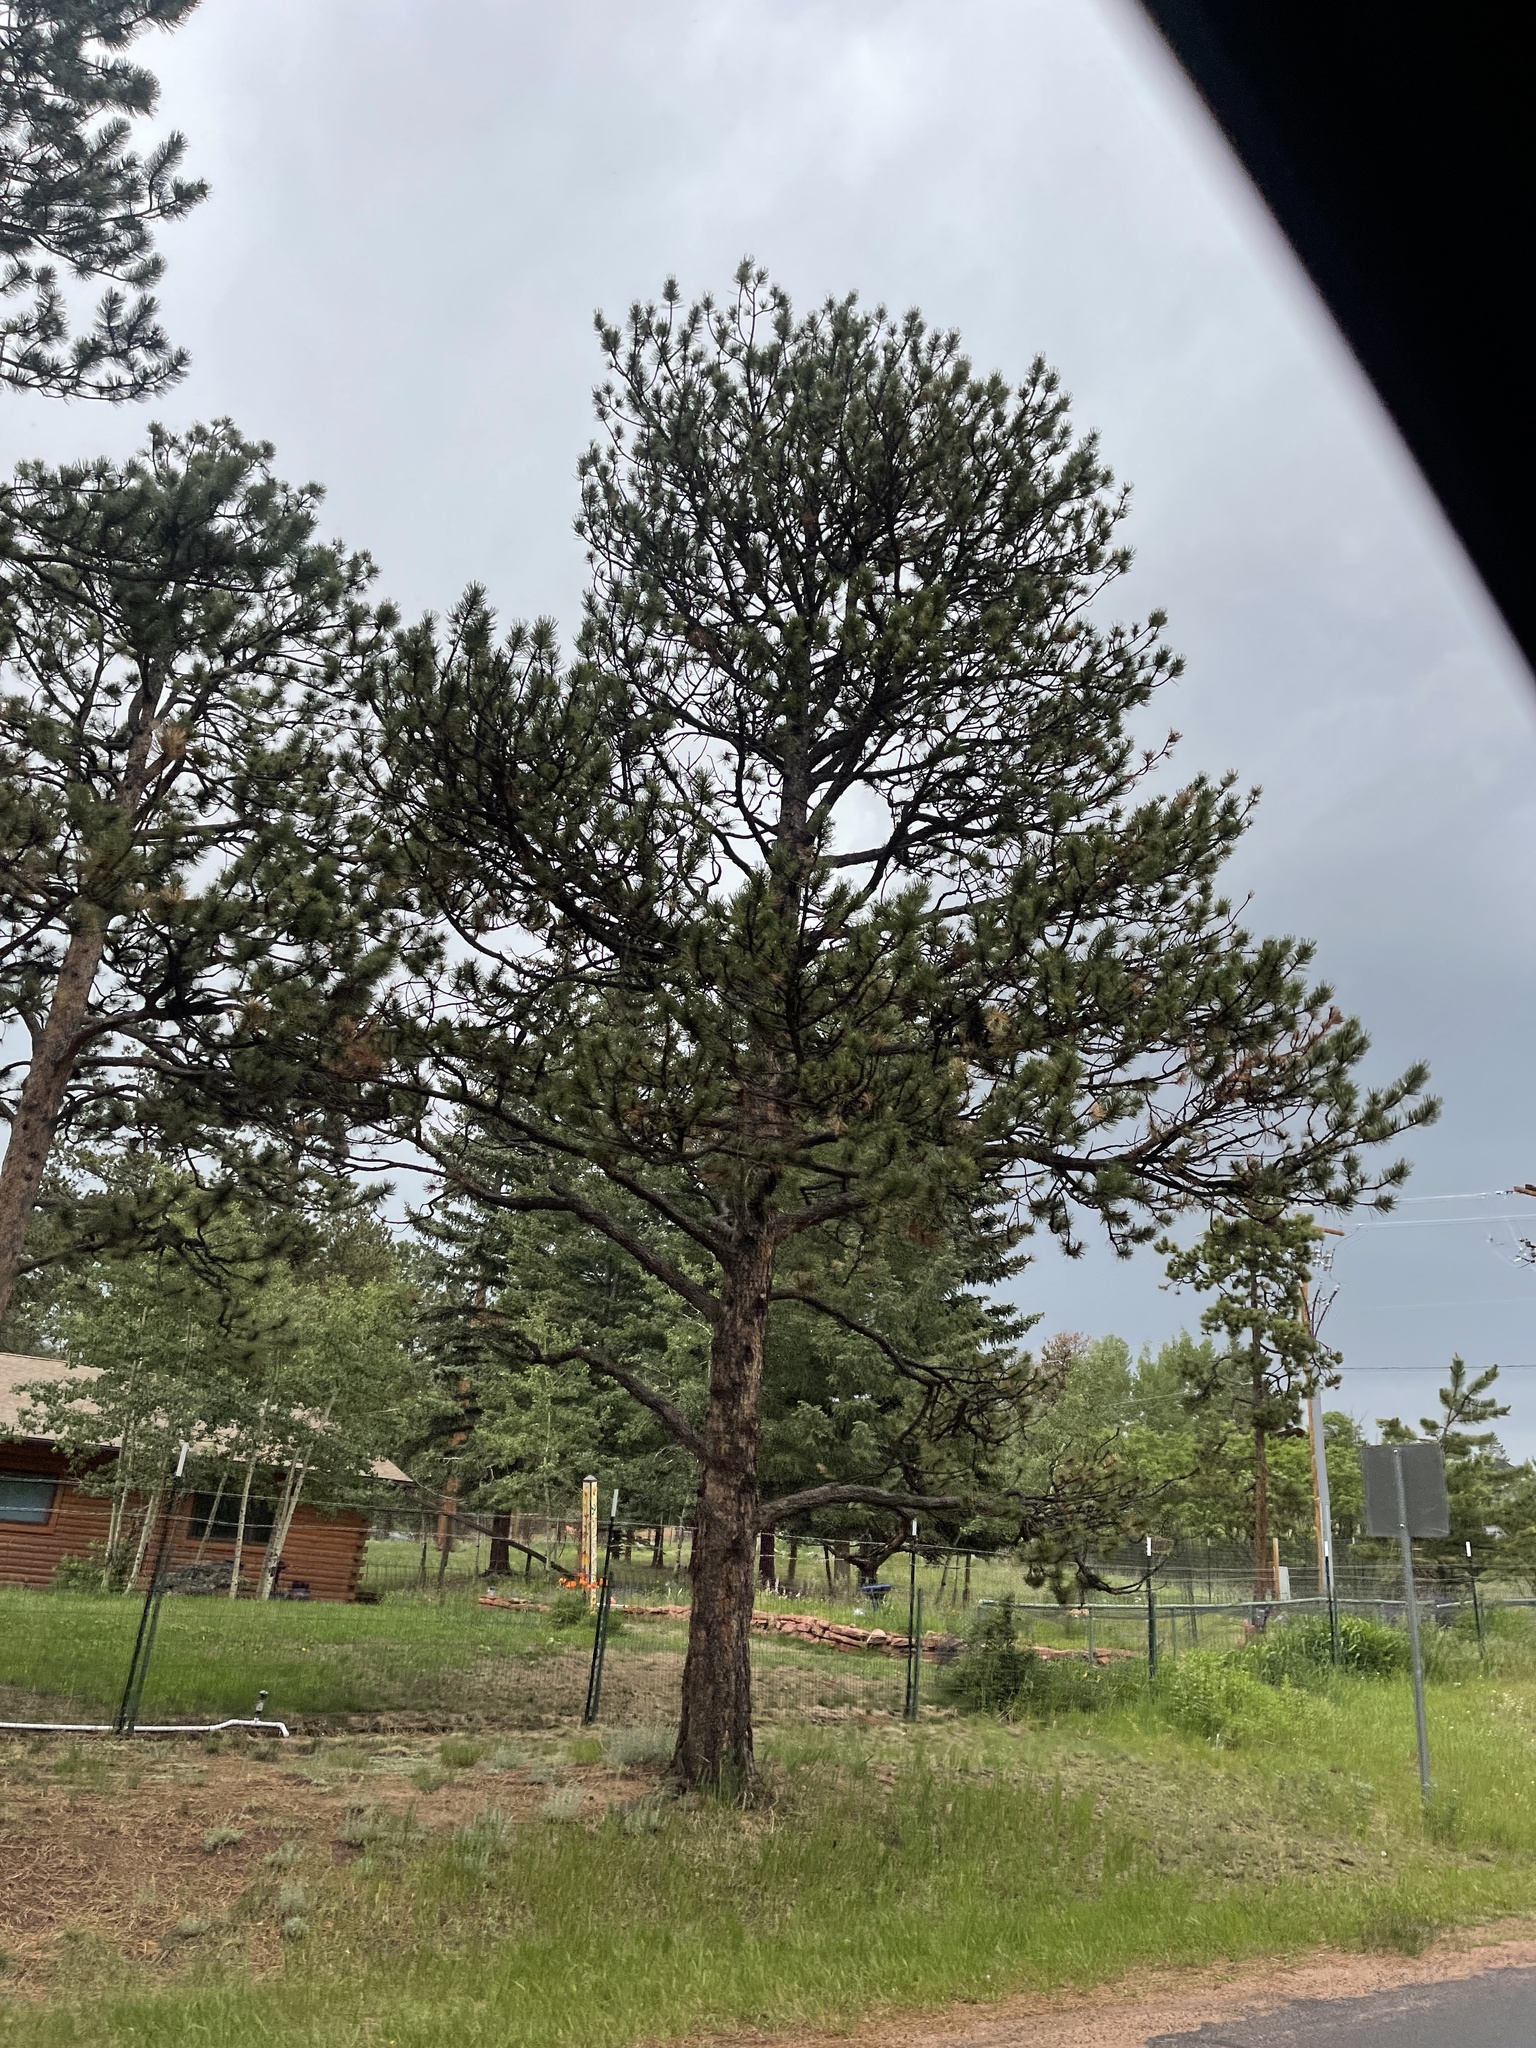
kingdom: Plantae
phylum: Tracheophyta
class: Pinopsida
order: Pinales
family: Pinaceae
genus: Pinus
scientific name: Pinus ponderosa
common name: Western yellow-pine
